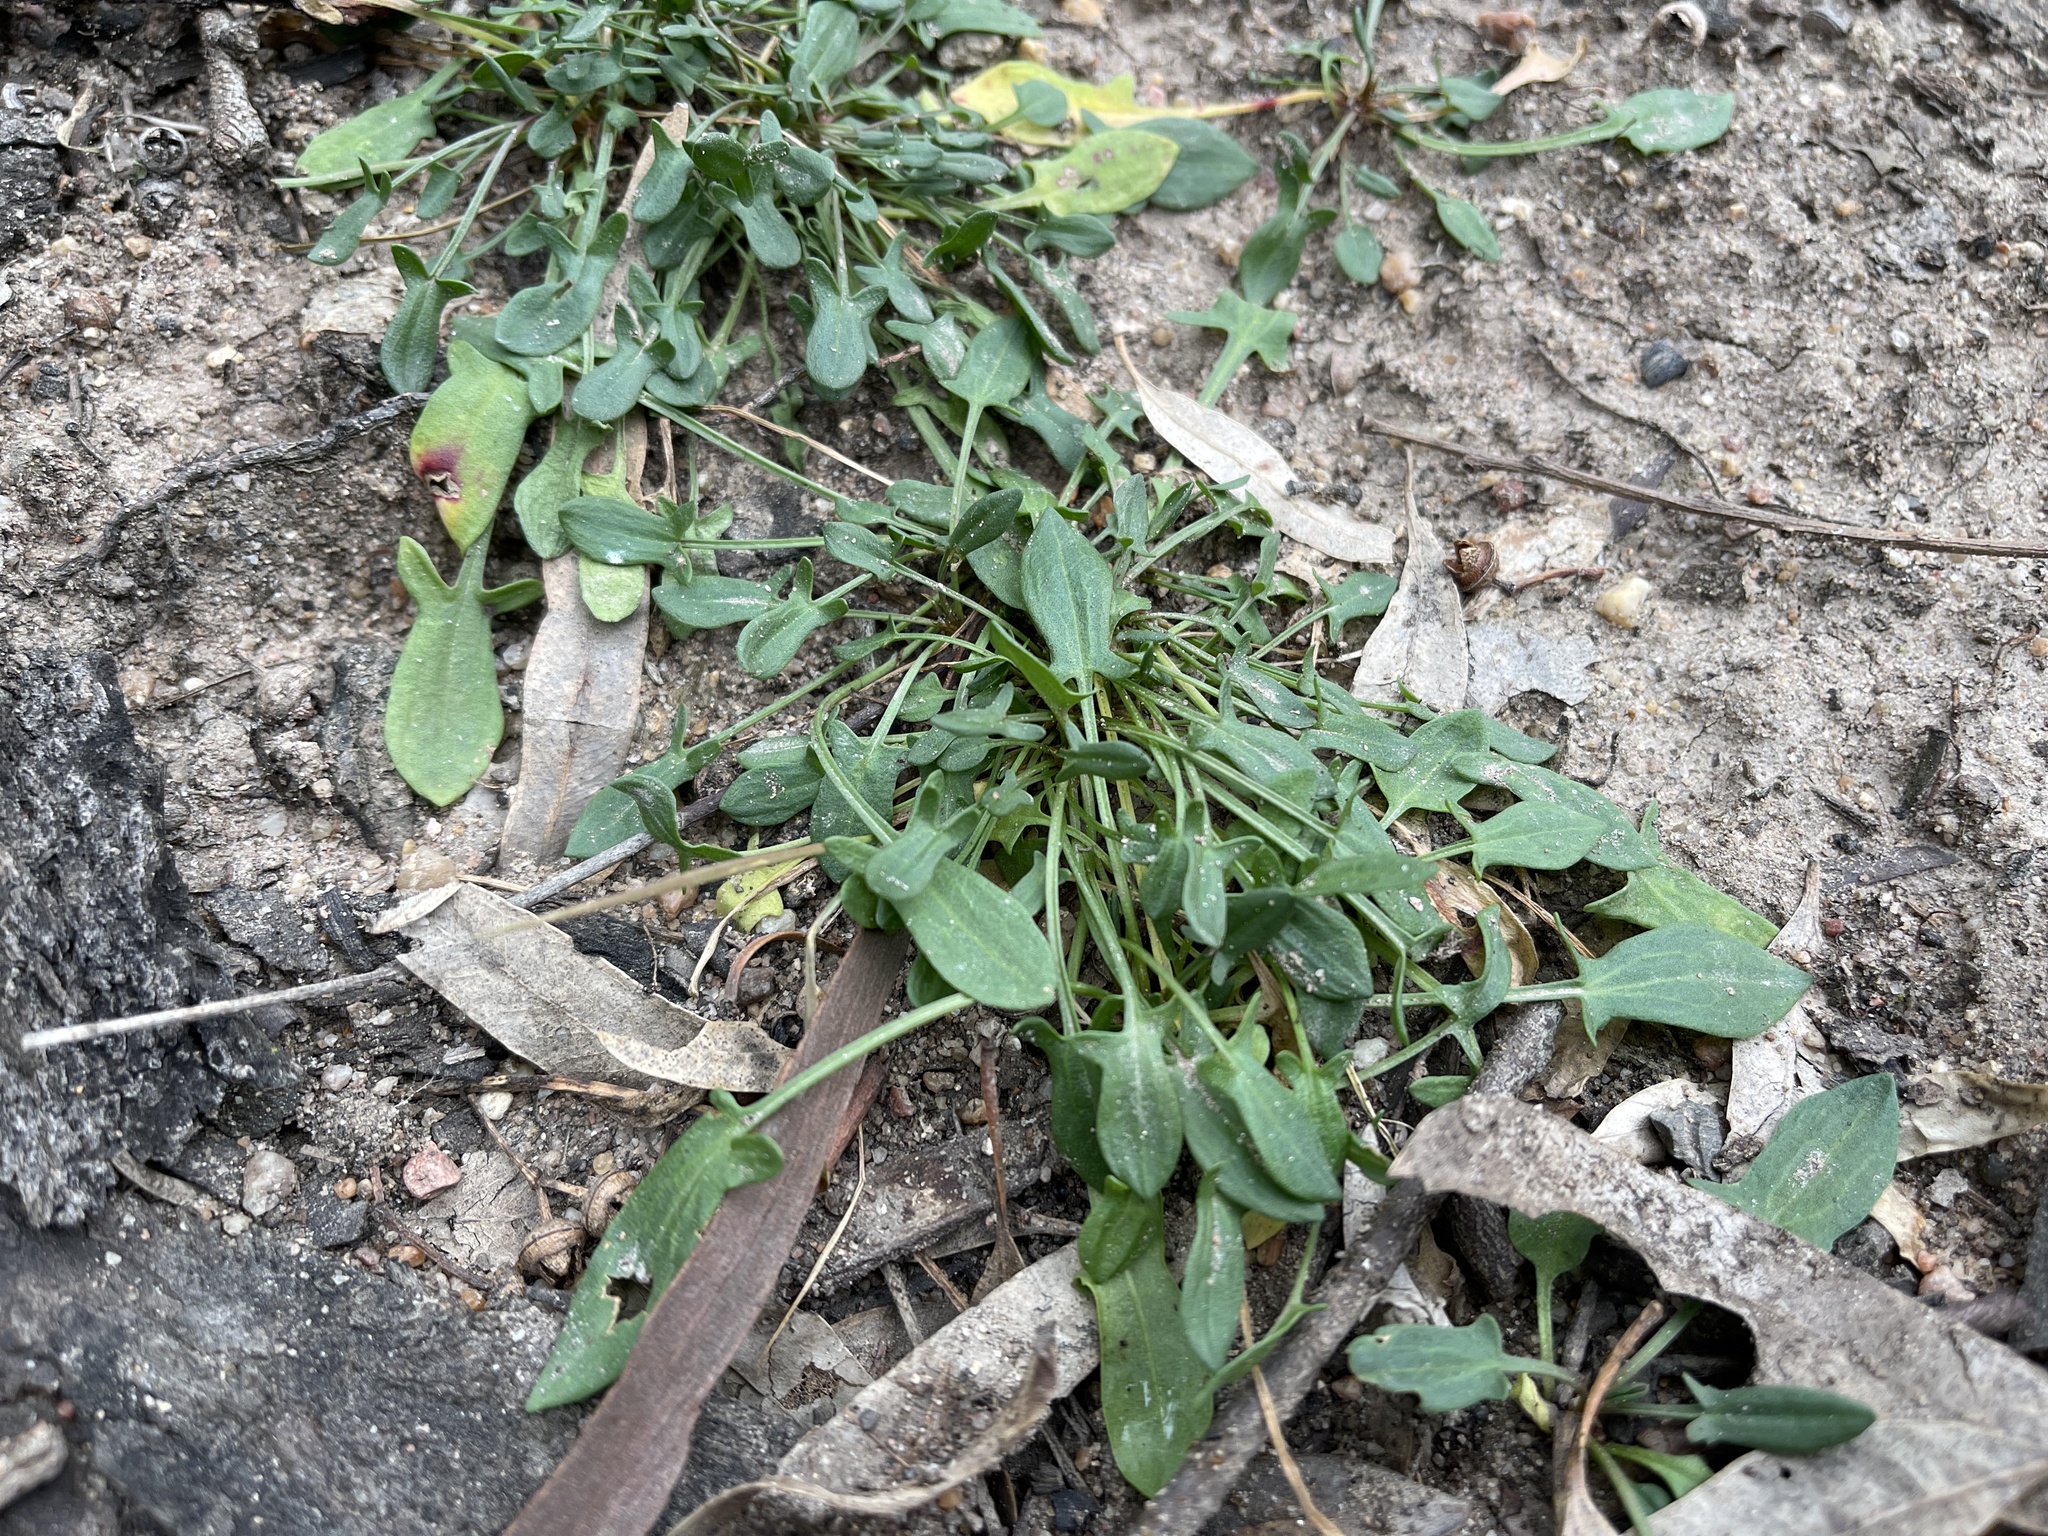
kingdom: Plantae
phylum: Tracheophyta
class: Magnoliopsida
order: Caryophyllales
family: Polygonaceae
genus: Rumex
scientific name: Rumex acetosella
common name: Common sheep sorrel
